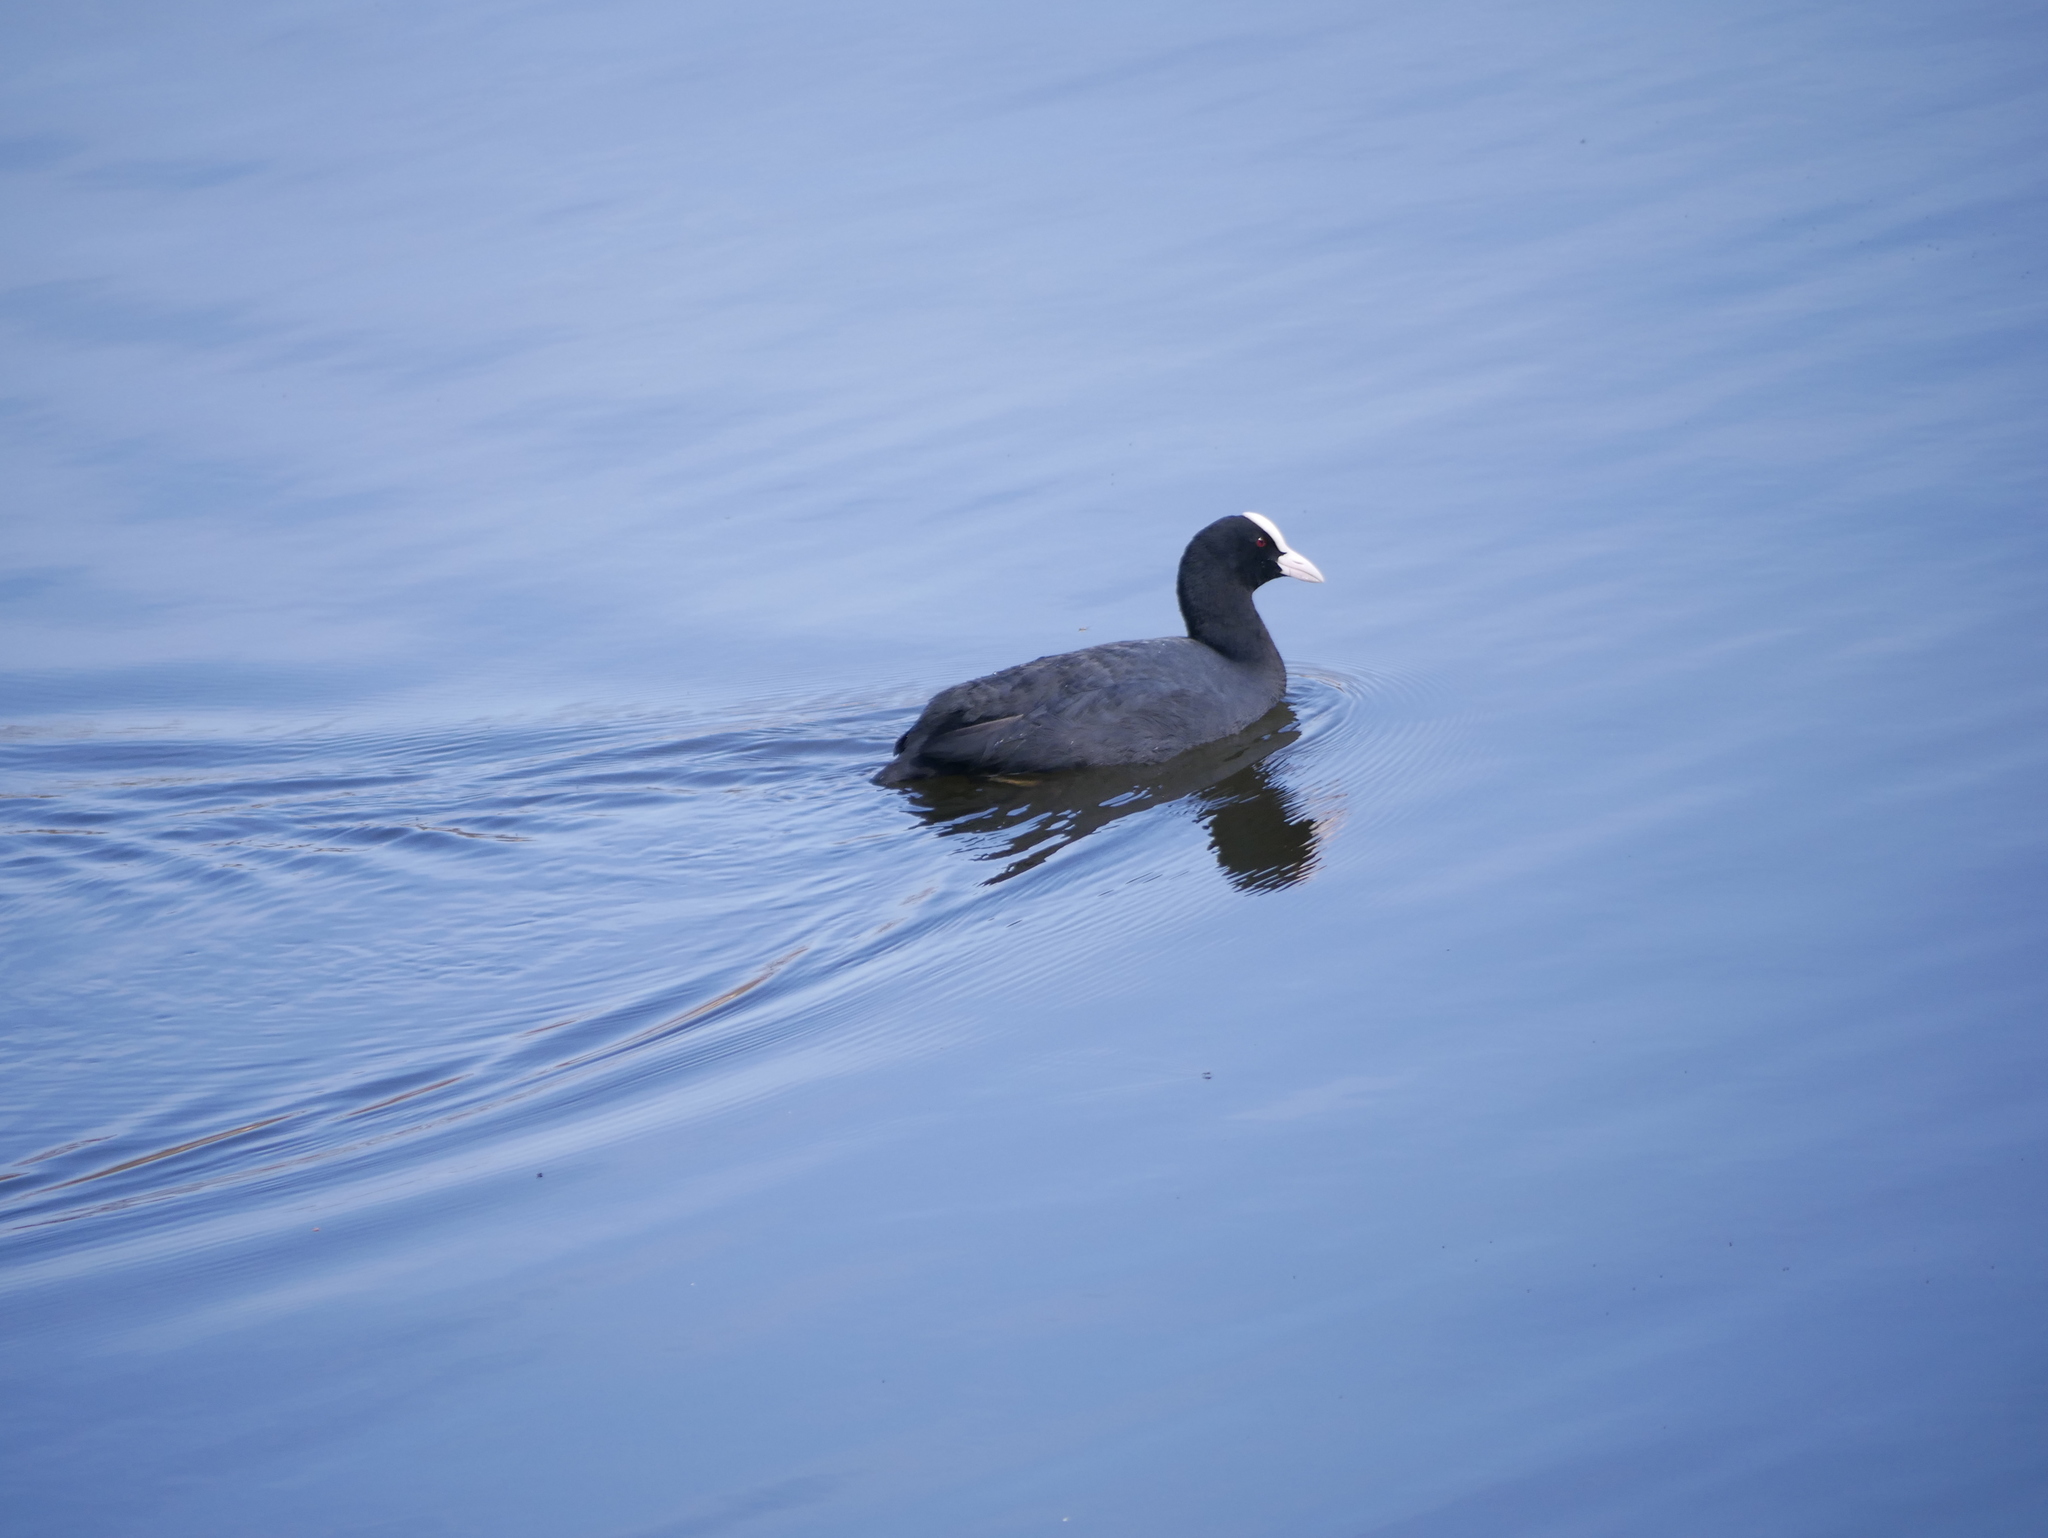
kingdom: Animalia
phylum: Chordata
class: Aves
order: Gruiformes
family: Rallidae
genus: Fulica
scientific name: Fulica atra
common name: Eurasian coot
